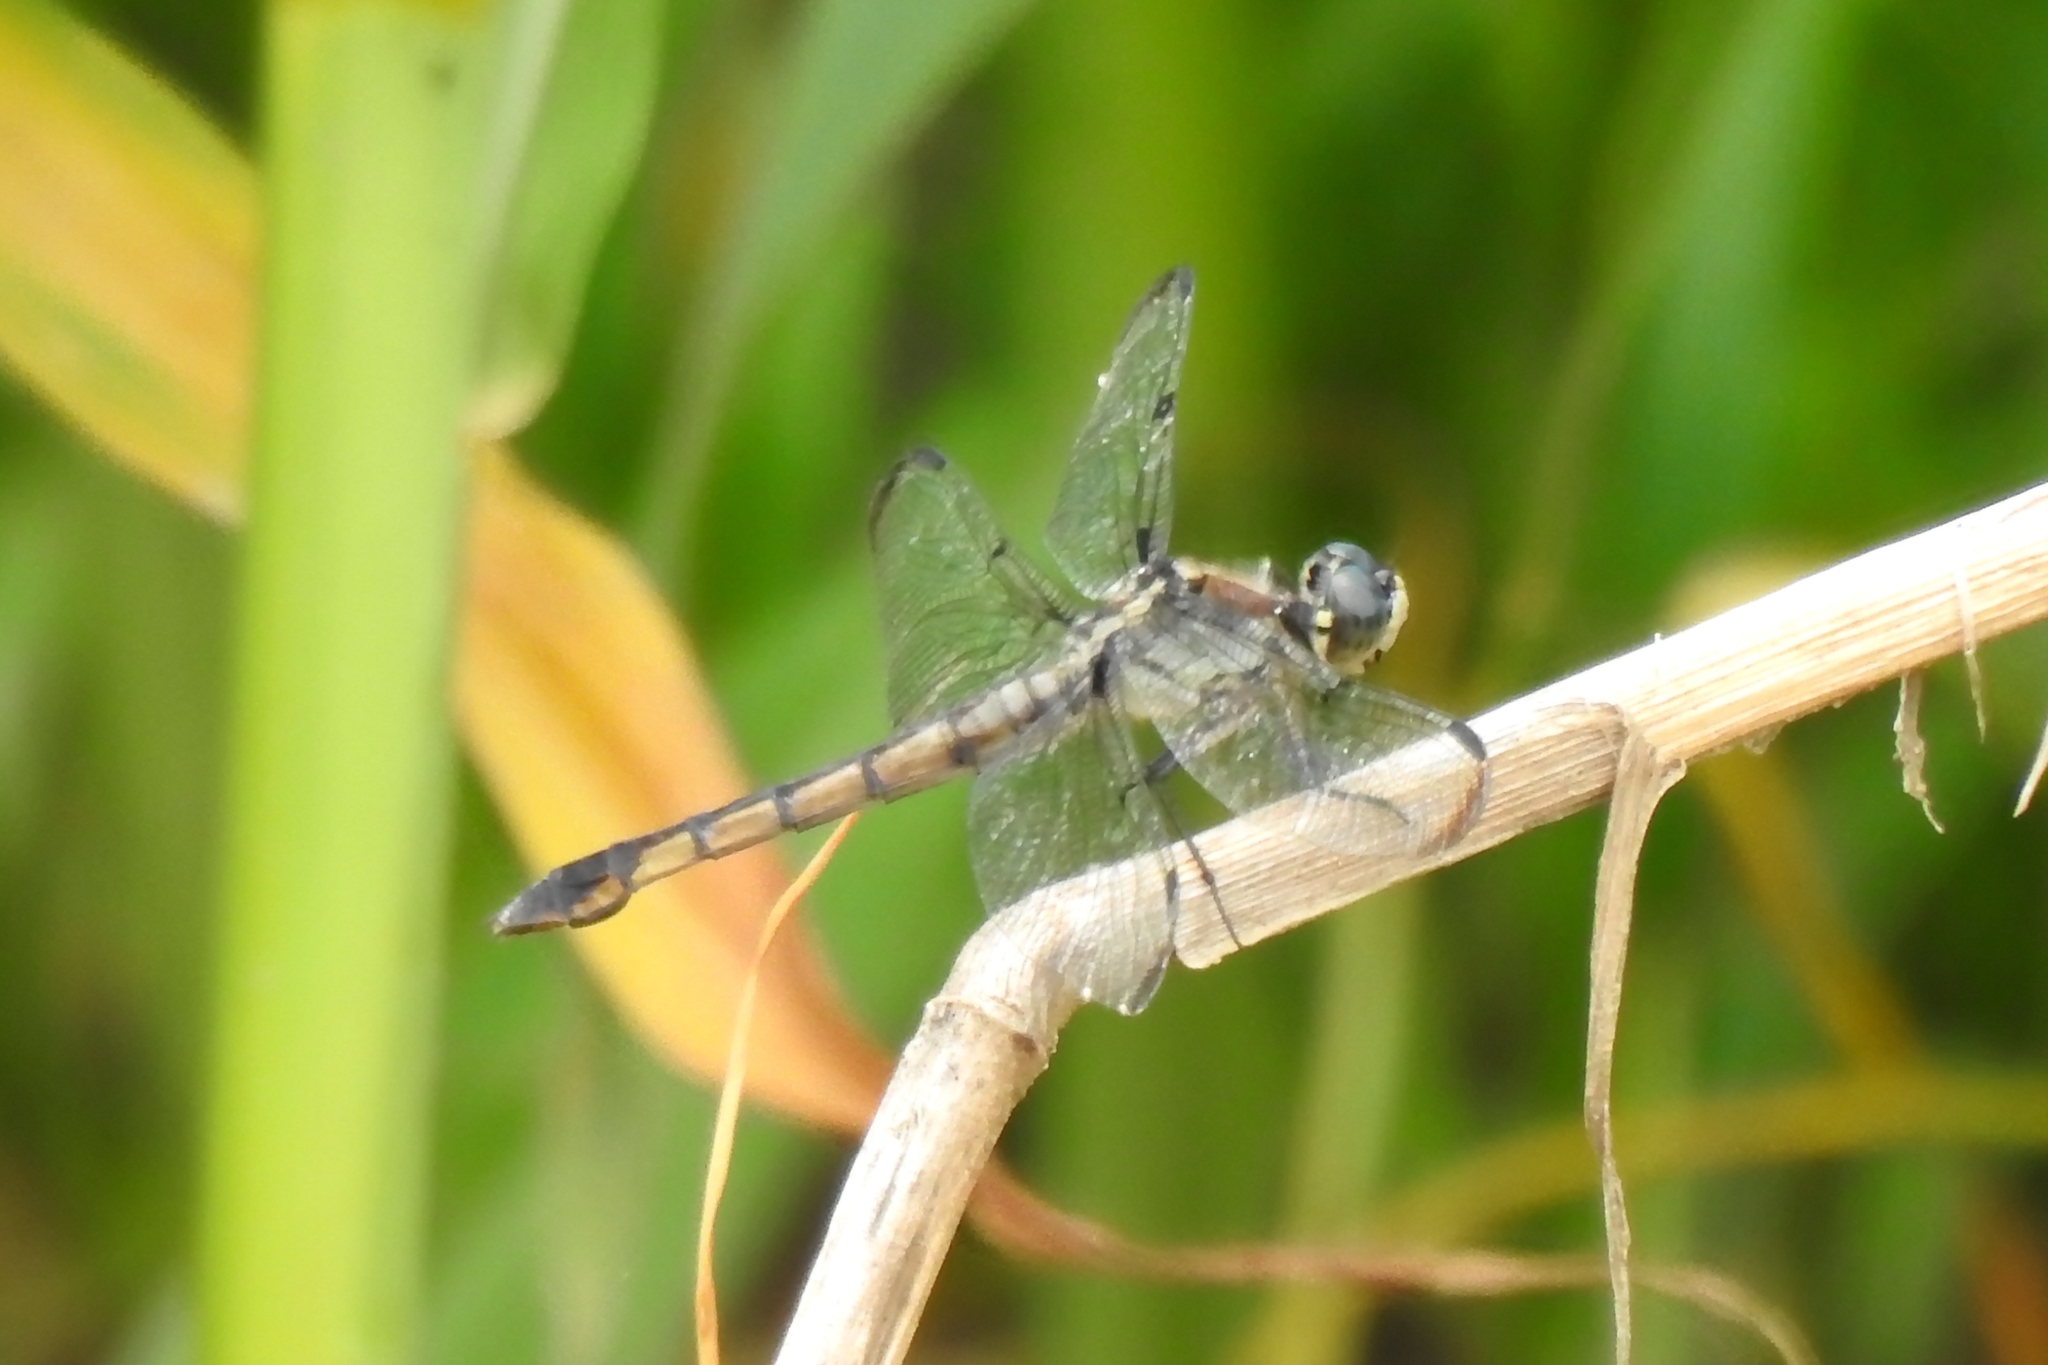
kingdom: Animalia
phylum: Arthropoda
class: Insecta
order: Odonata
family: Libellulidae
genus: Libellula
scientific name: Libellula vibrans
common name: Great blue skimmer
